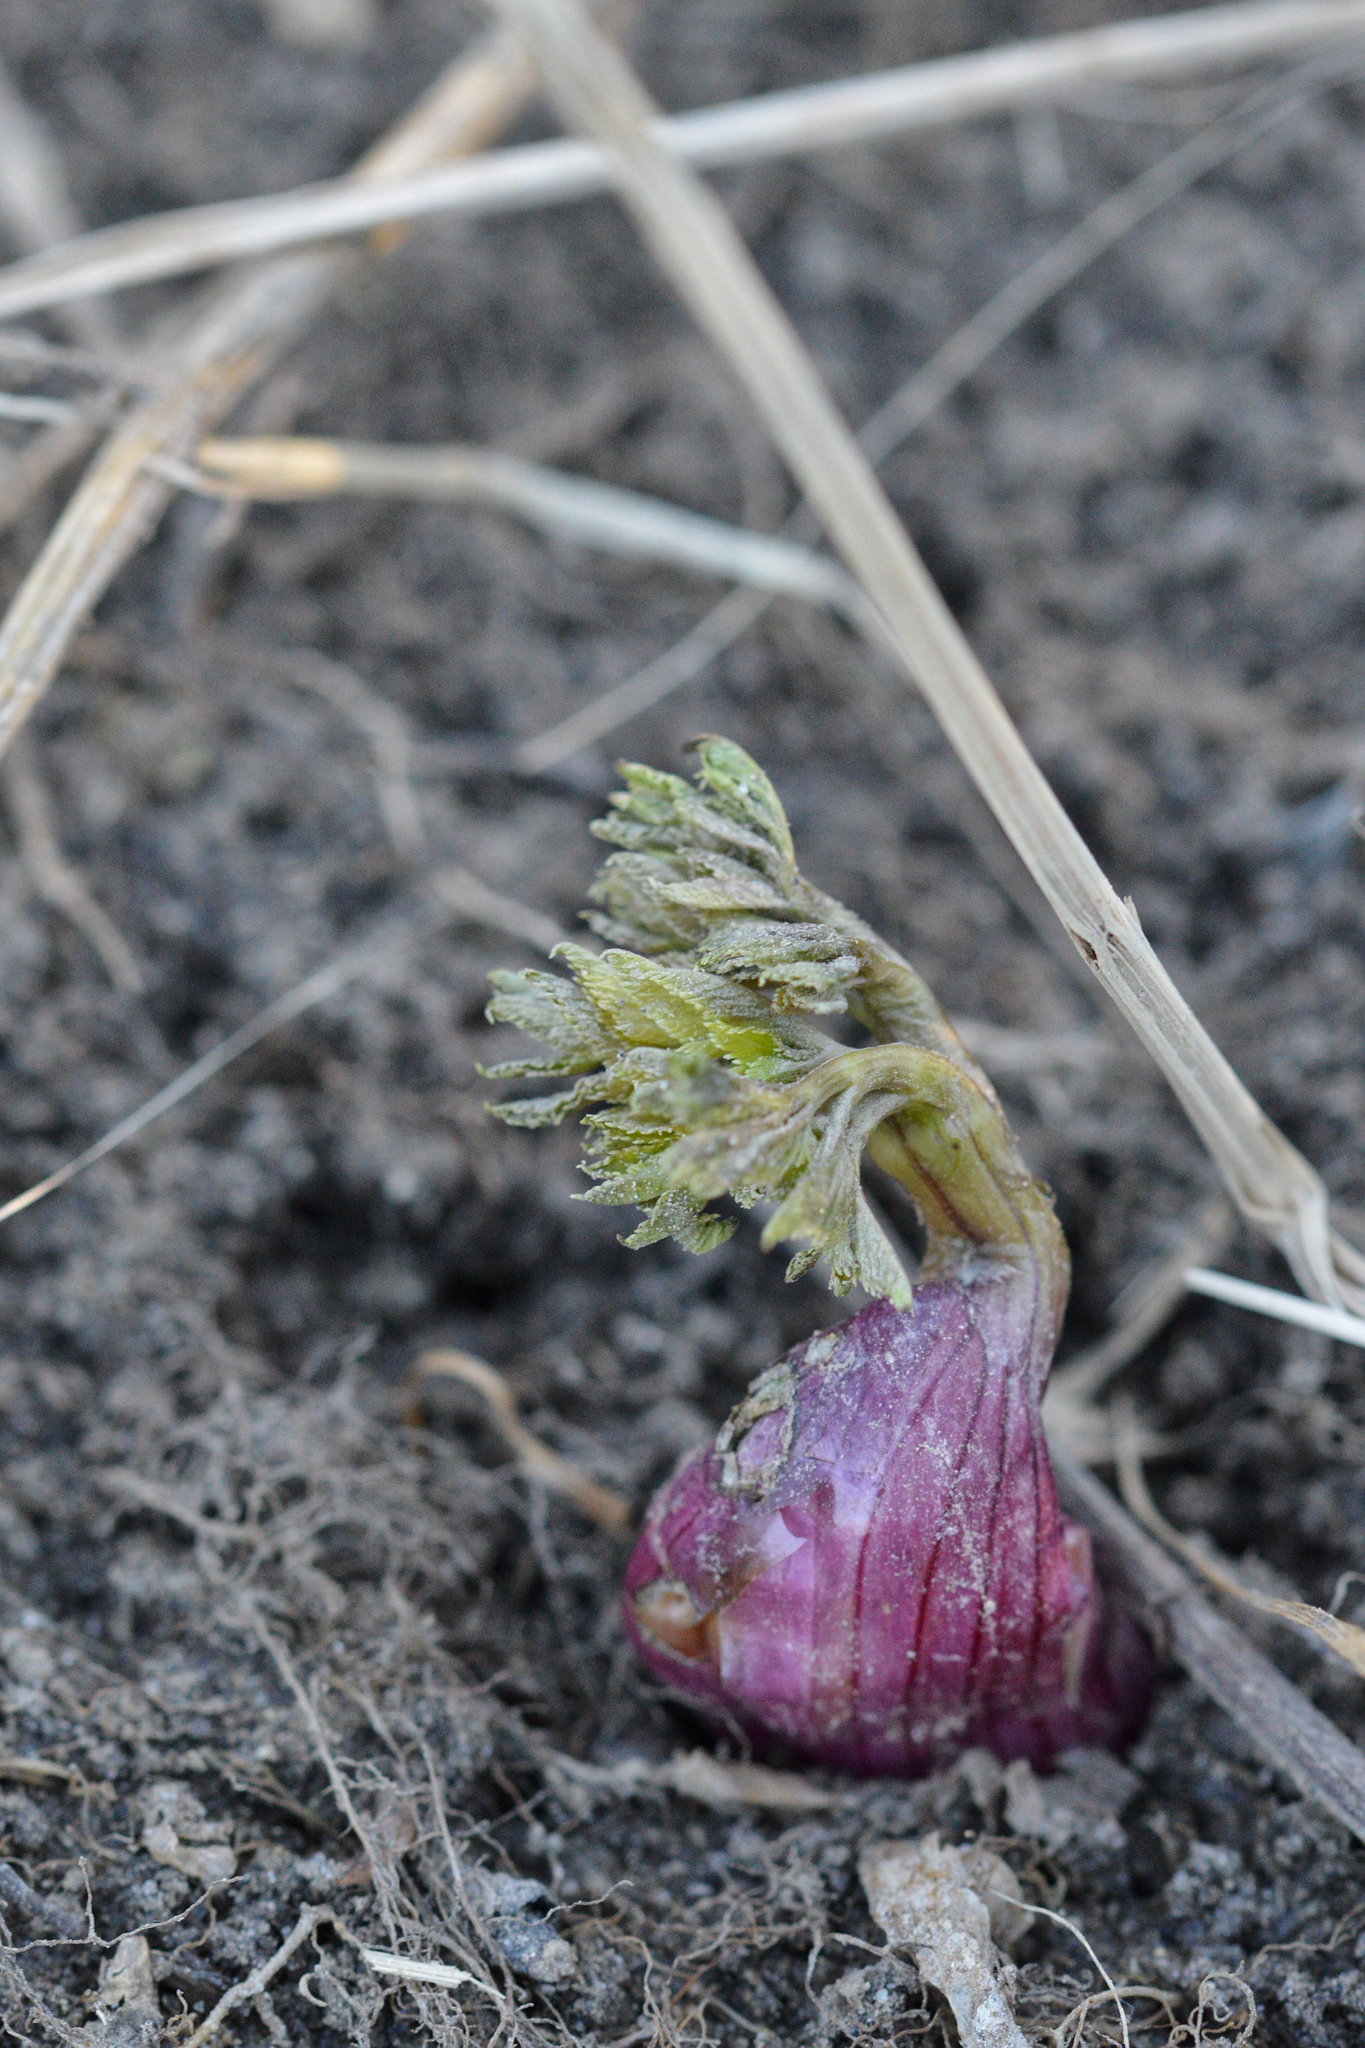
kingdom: Plantae
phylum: Tracheophyta
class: Magnoliopsida
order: Apiales
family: Apiaceae
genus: Angelica
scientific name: Angelica atropurpurea
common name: Great angelica
